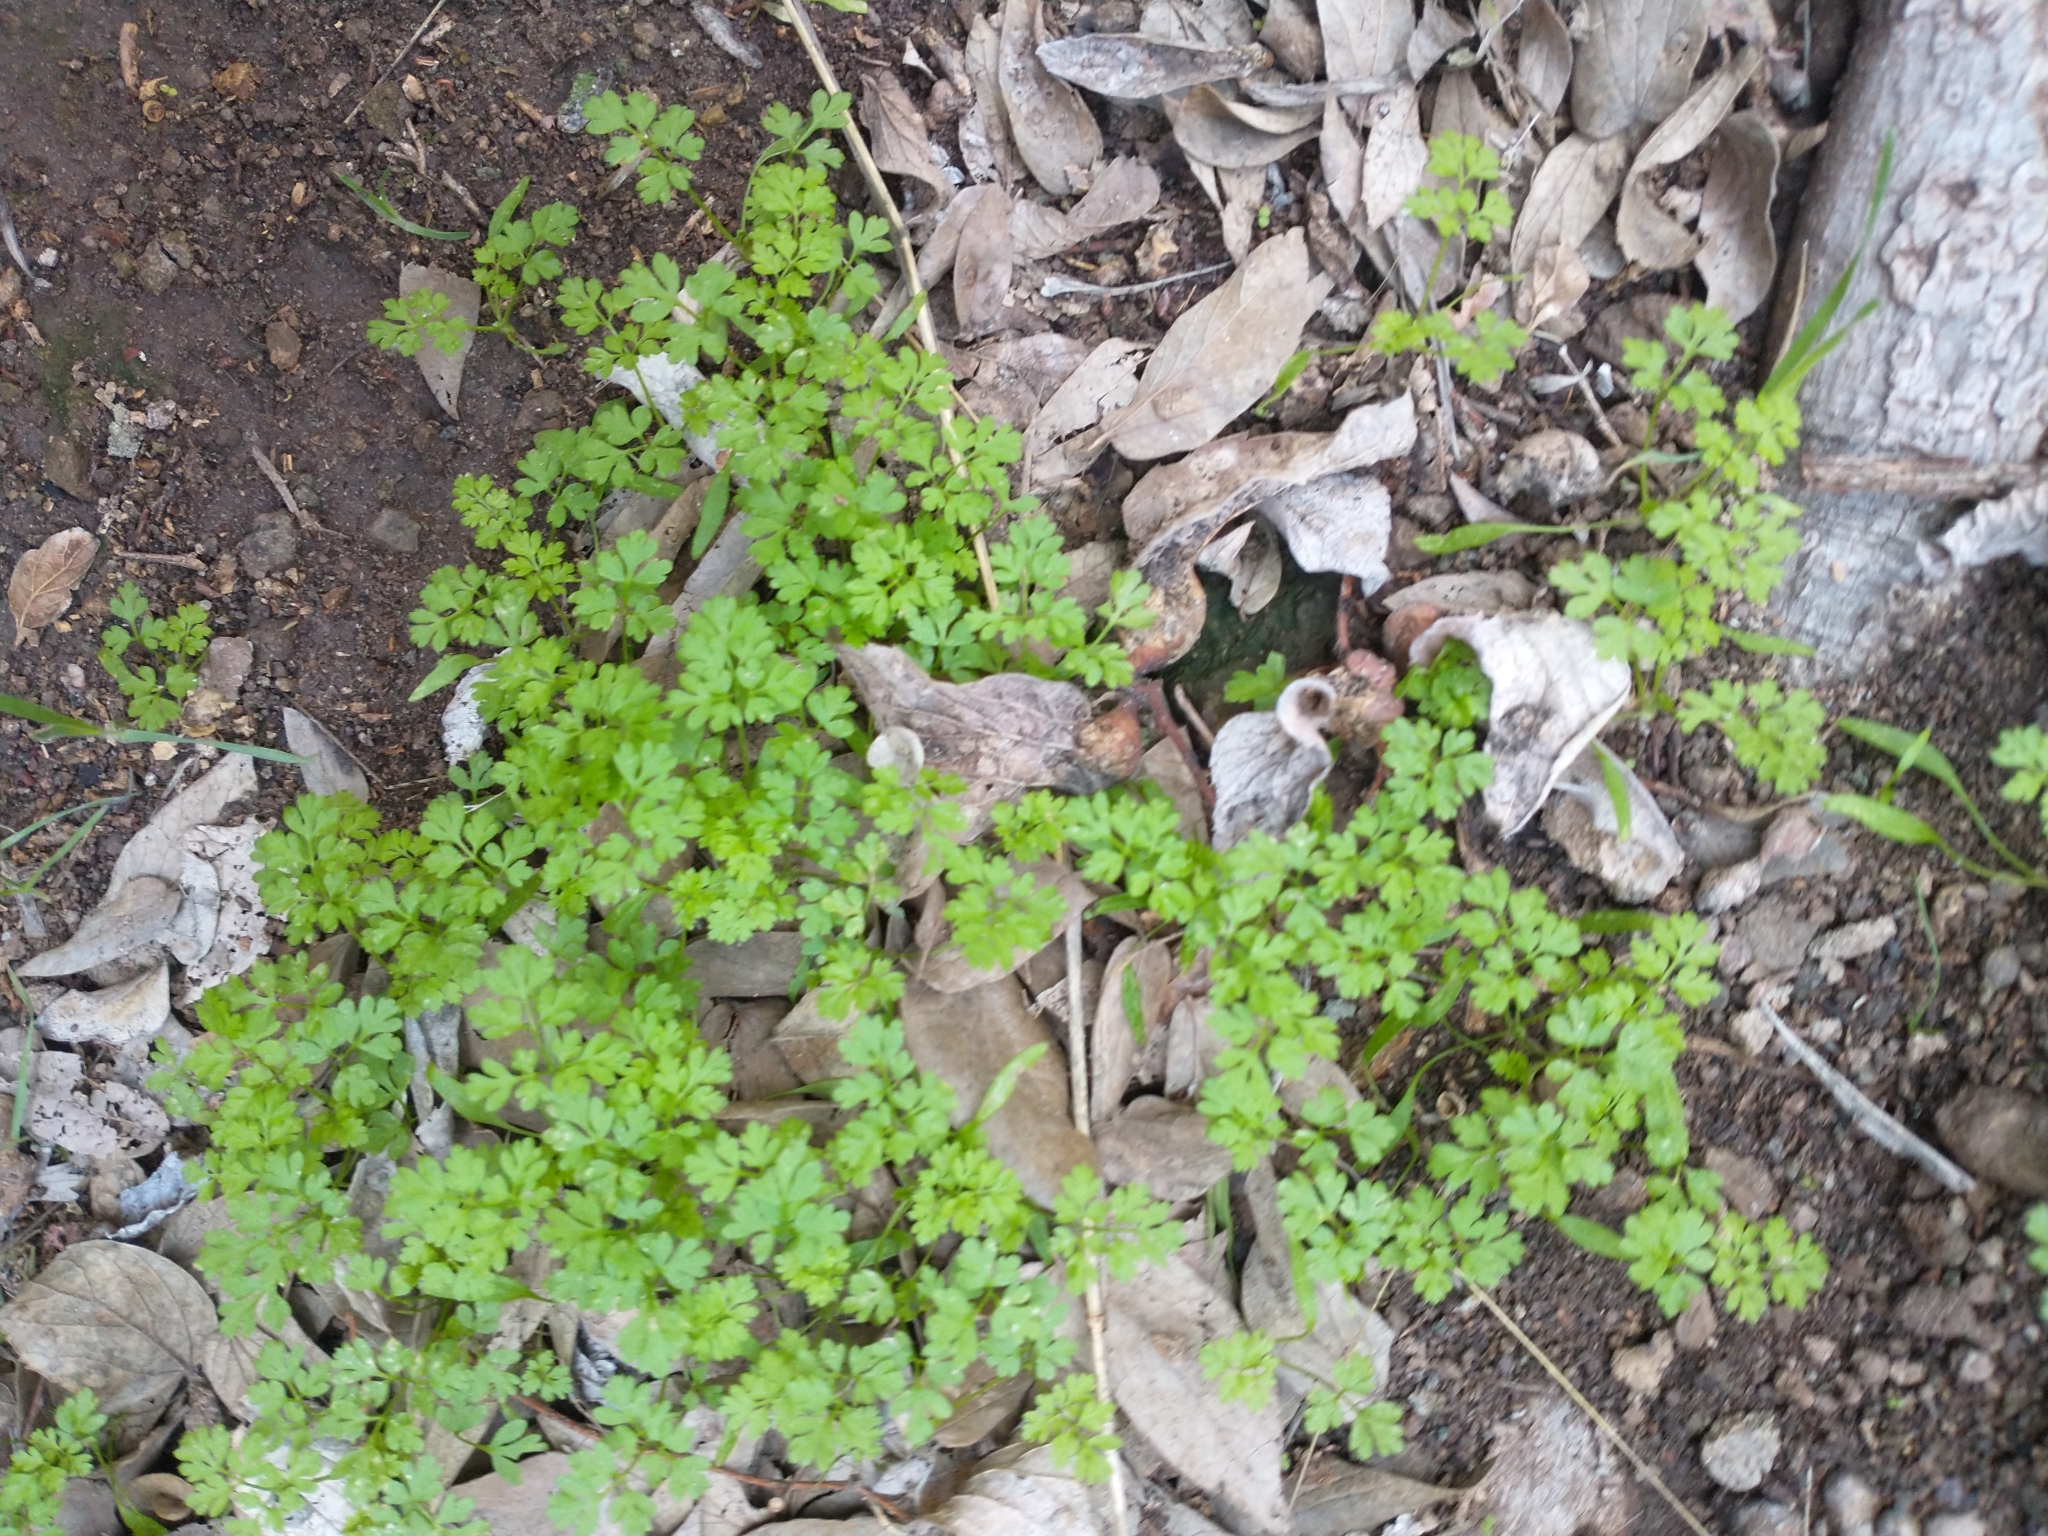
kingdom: Plantae
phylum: Tracheophyta
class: Magnoliopsida
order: Apiales
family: Apiaceae
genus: Anthriscus
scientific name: Anthriscus caucalis
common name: Bur chervil
